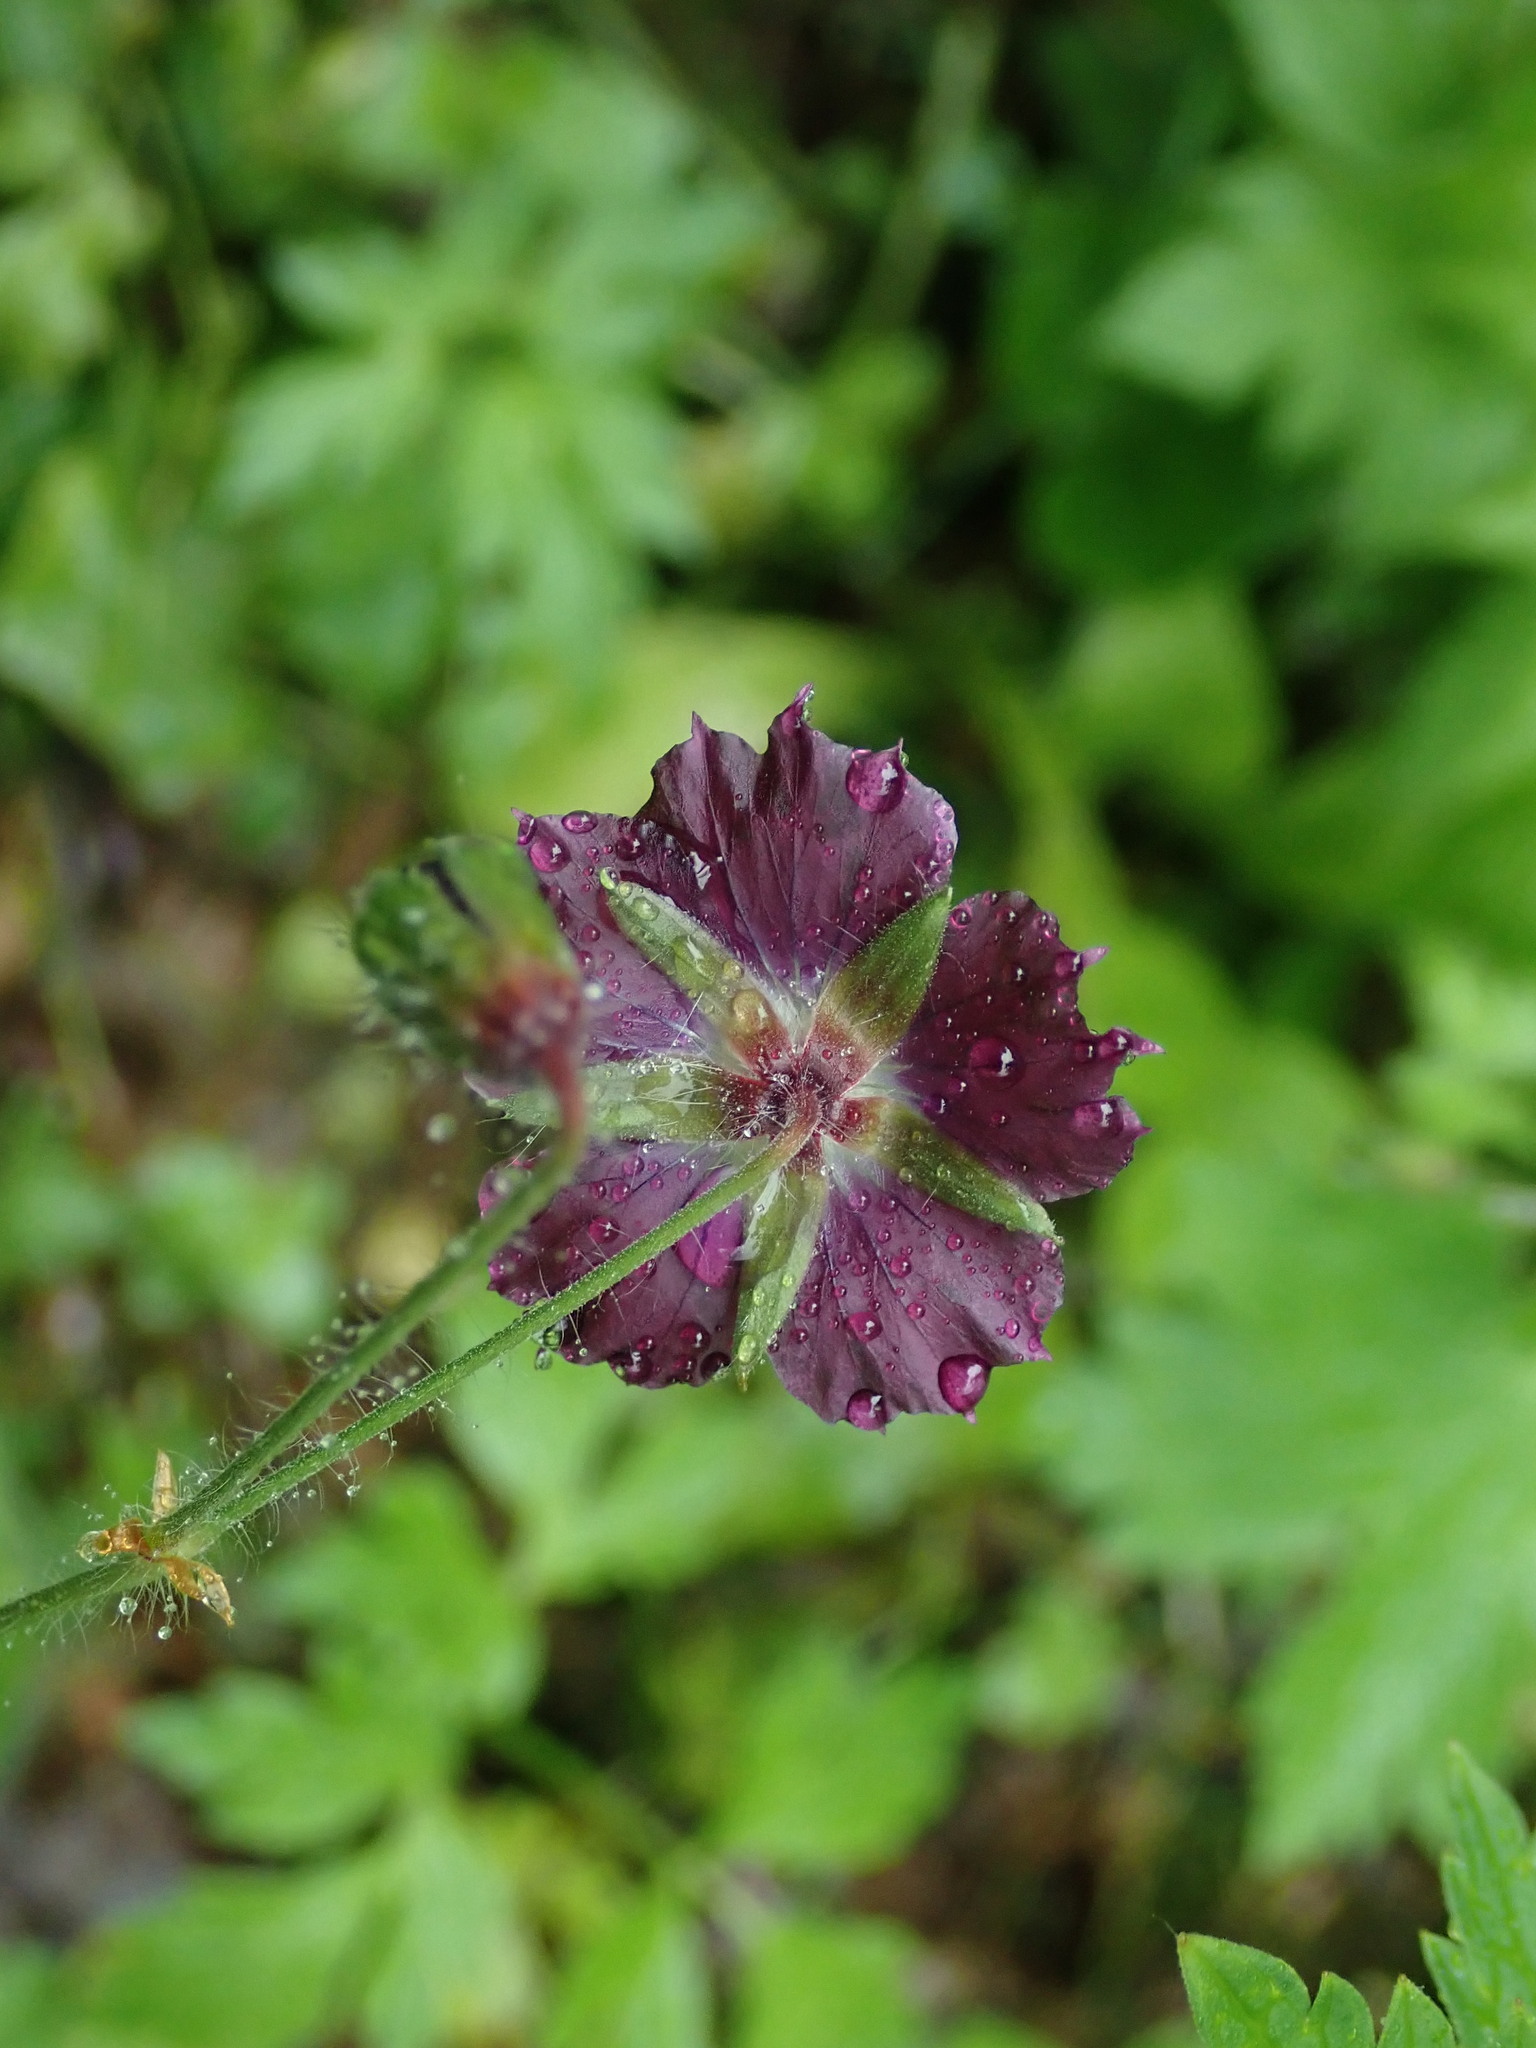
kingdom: Plantae
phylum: Tracheophyta
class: Magnoliopsida
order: Geraniales
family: Geraniaceae
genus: Geranium
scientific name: Geranium phaeum
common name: Dusky crane's-bill
